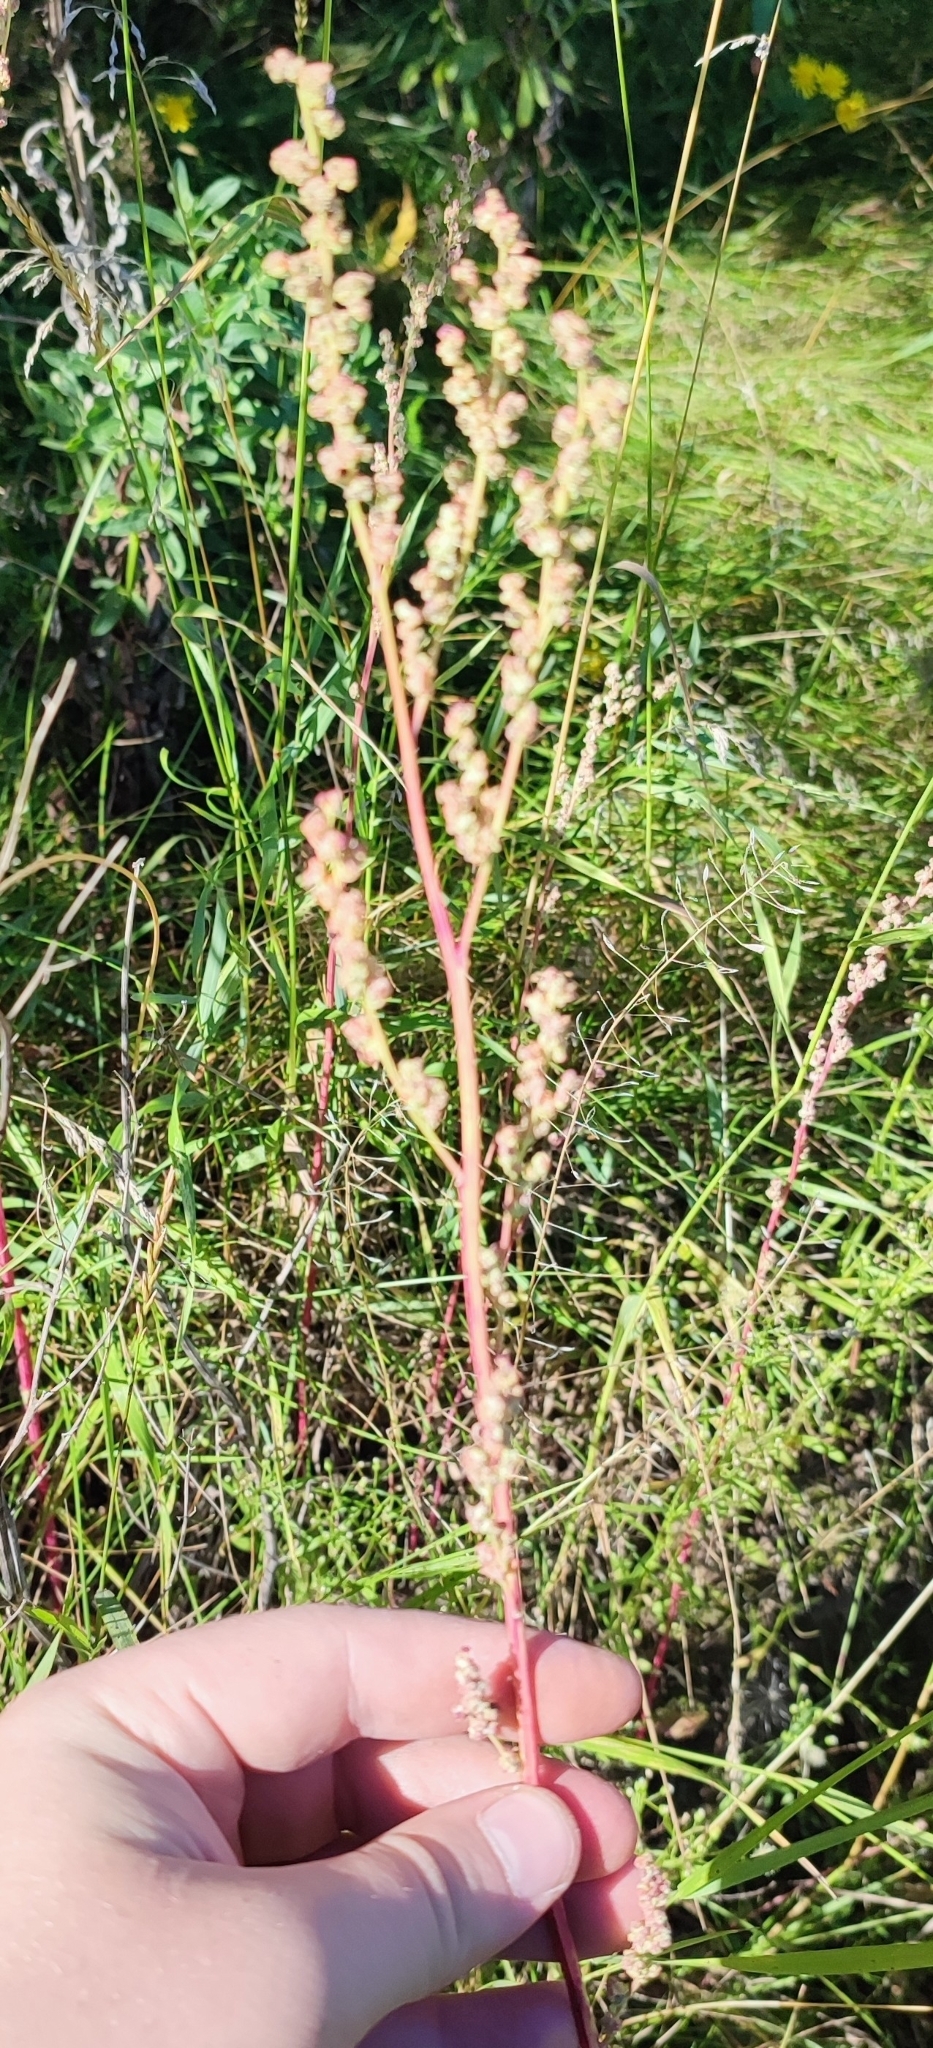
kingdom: Plantae
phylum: Tracheophyta
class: Magnoliopsida
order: Caryophyllales
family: Amaranthaceae
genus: Chenopodium
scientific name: Chenopodium album
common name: Fat-hen
